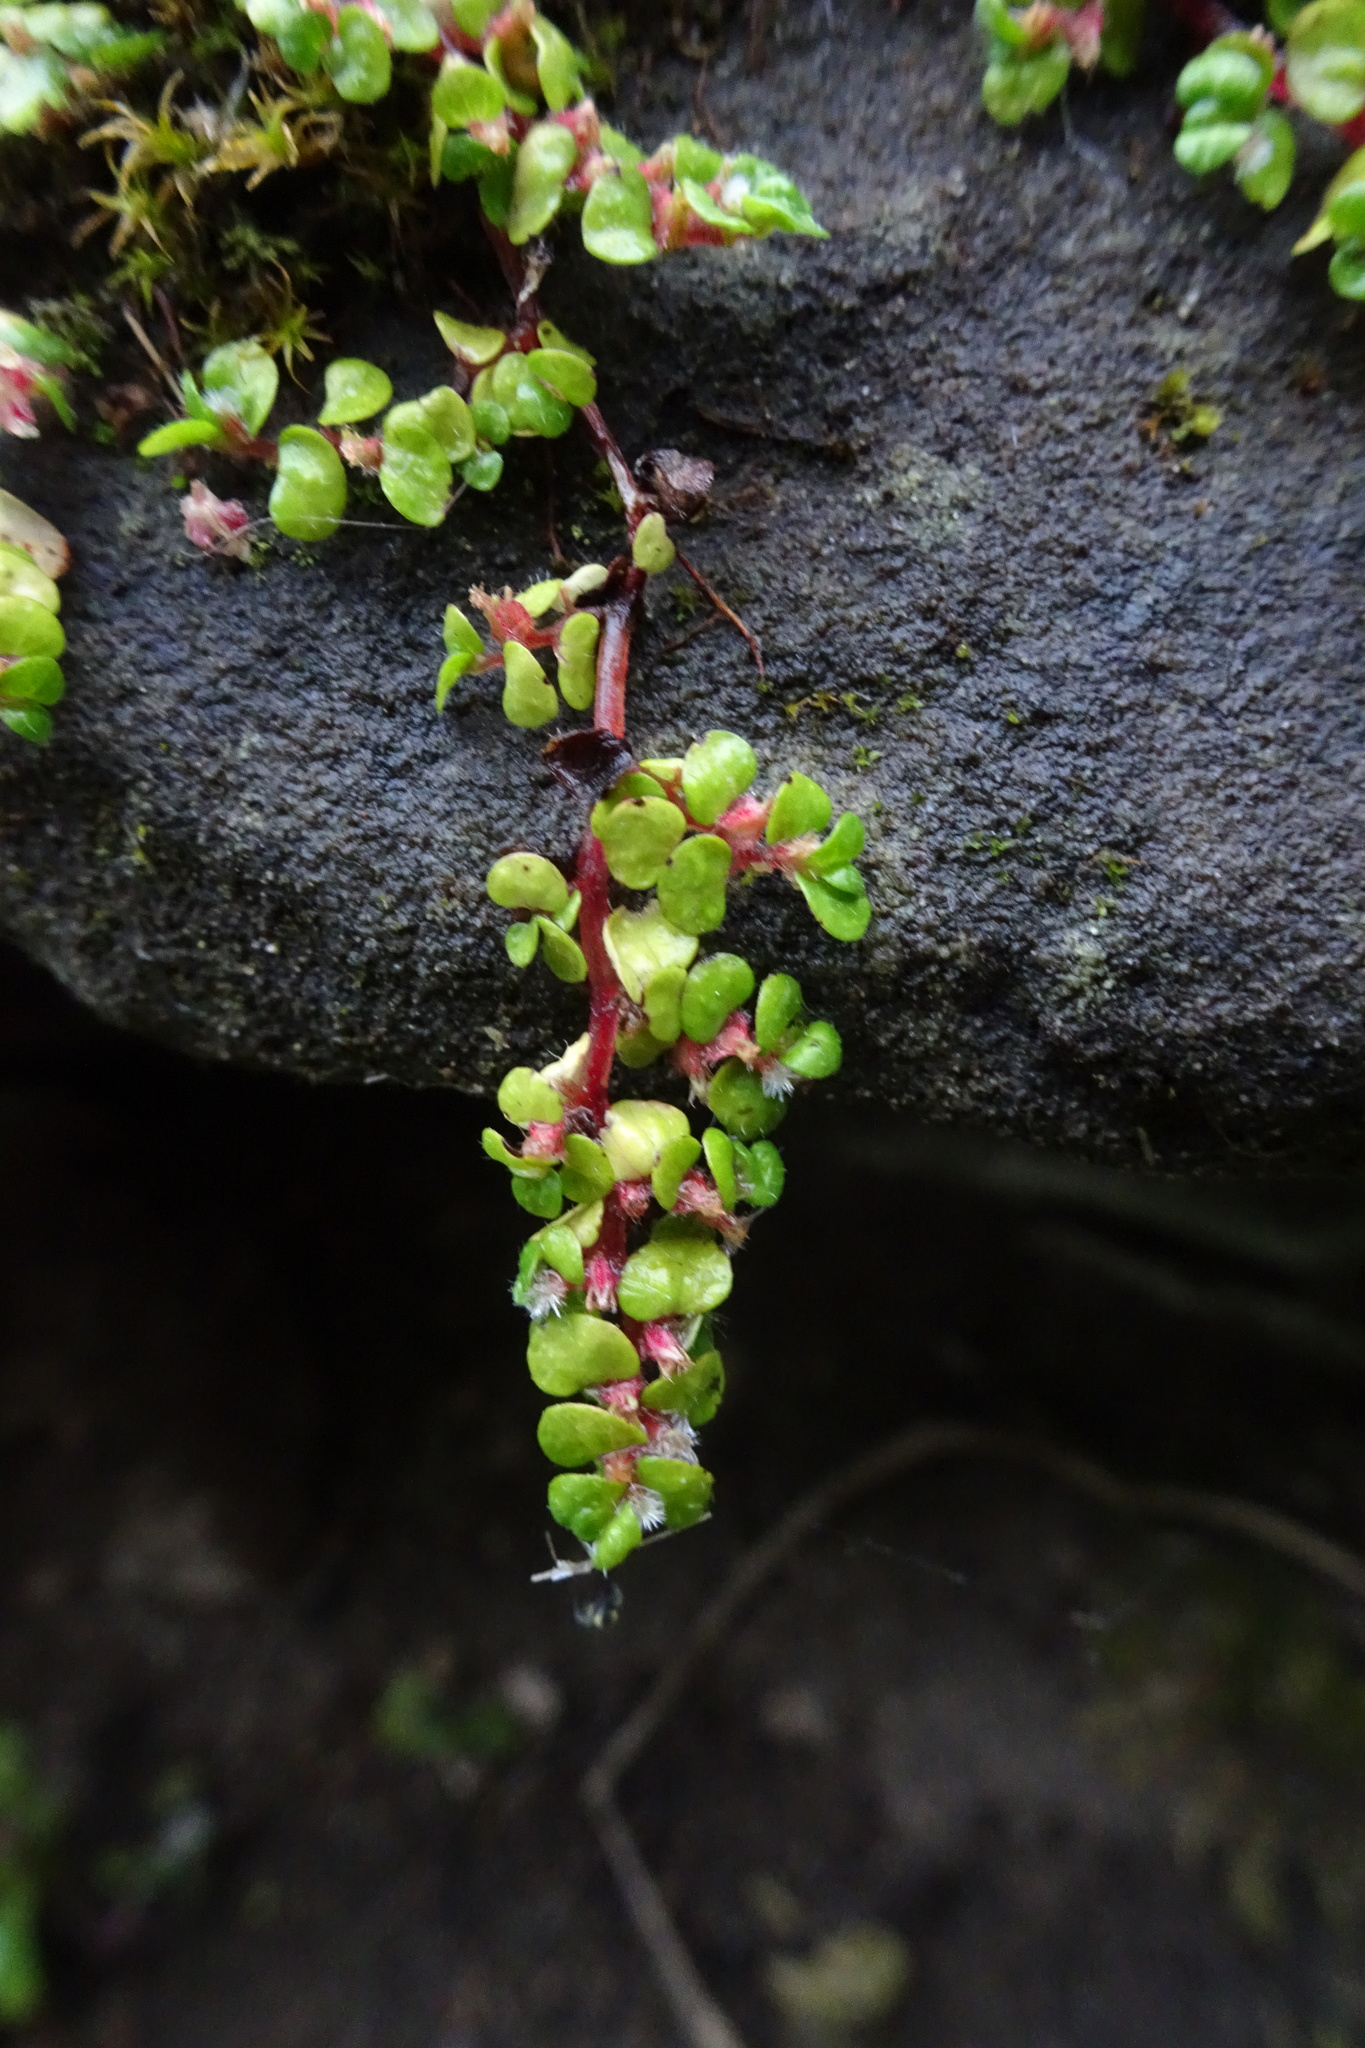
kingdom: Plantae
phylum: Tracheophyta
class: Magnoliopsida
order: Rosales
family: Urticaceae
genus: Soleirolia
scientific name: Soleirolia soleirolii
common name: Mind-your-own-business
